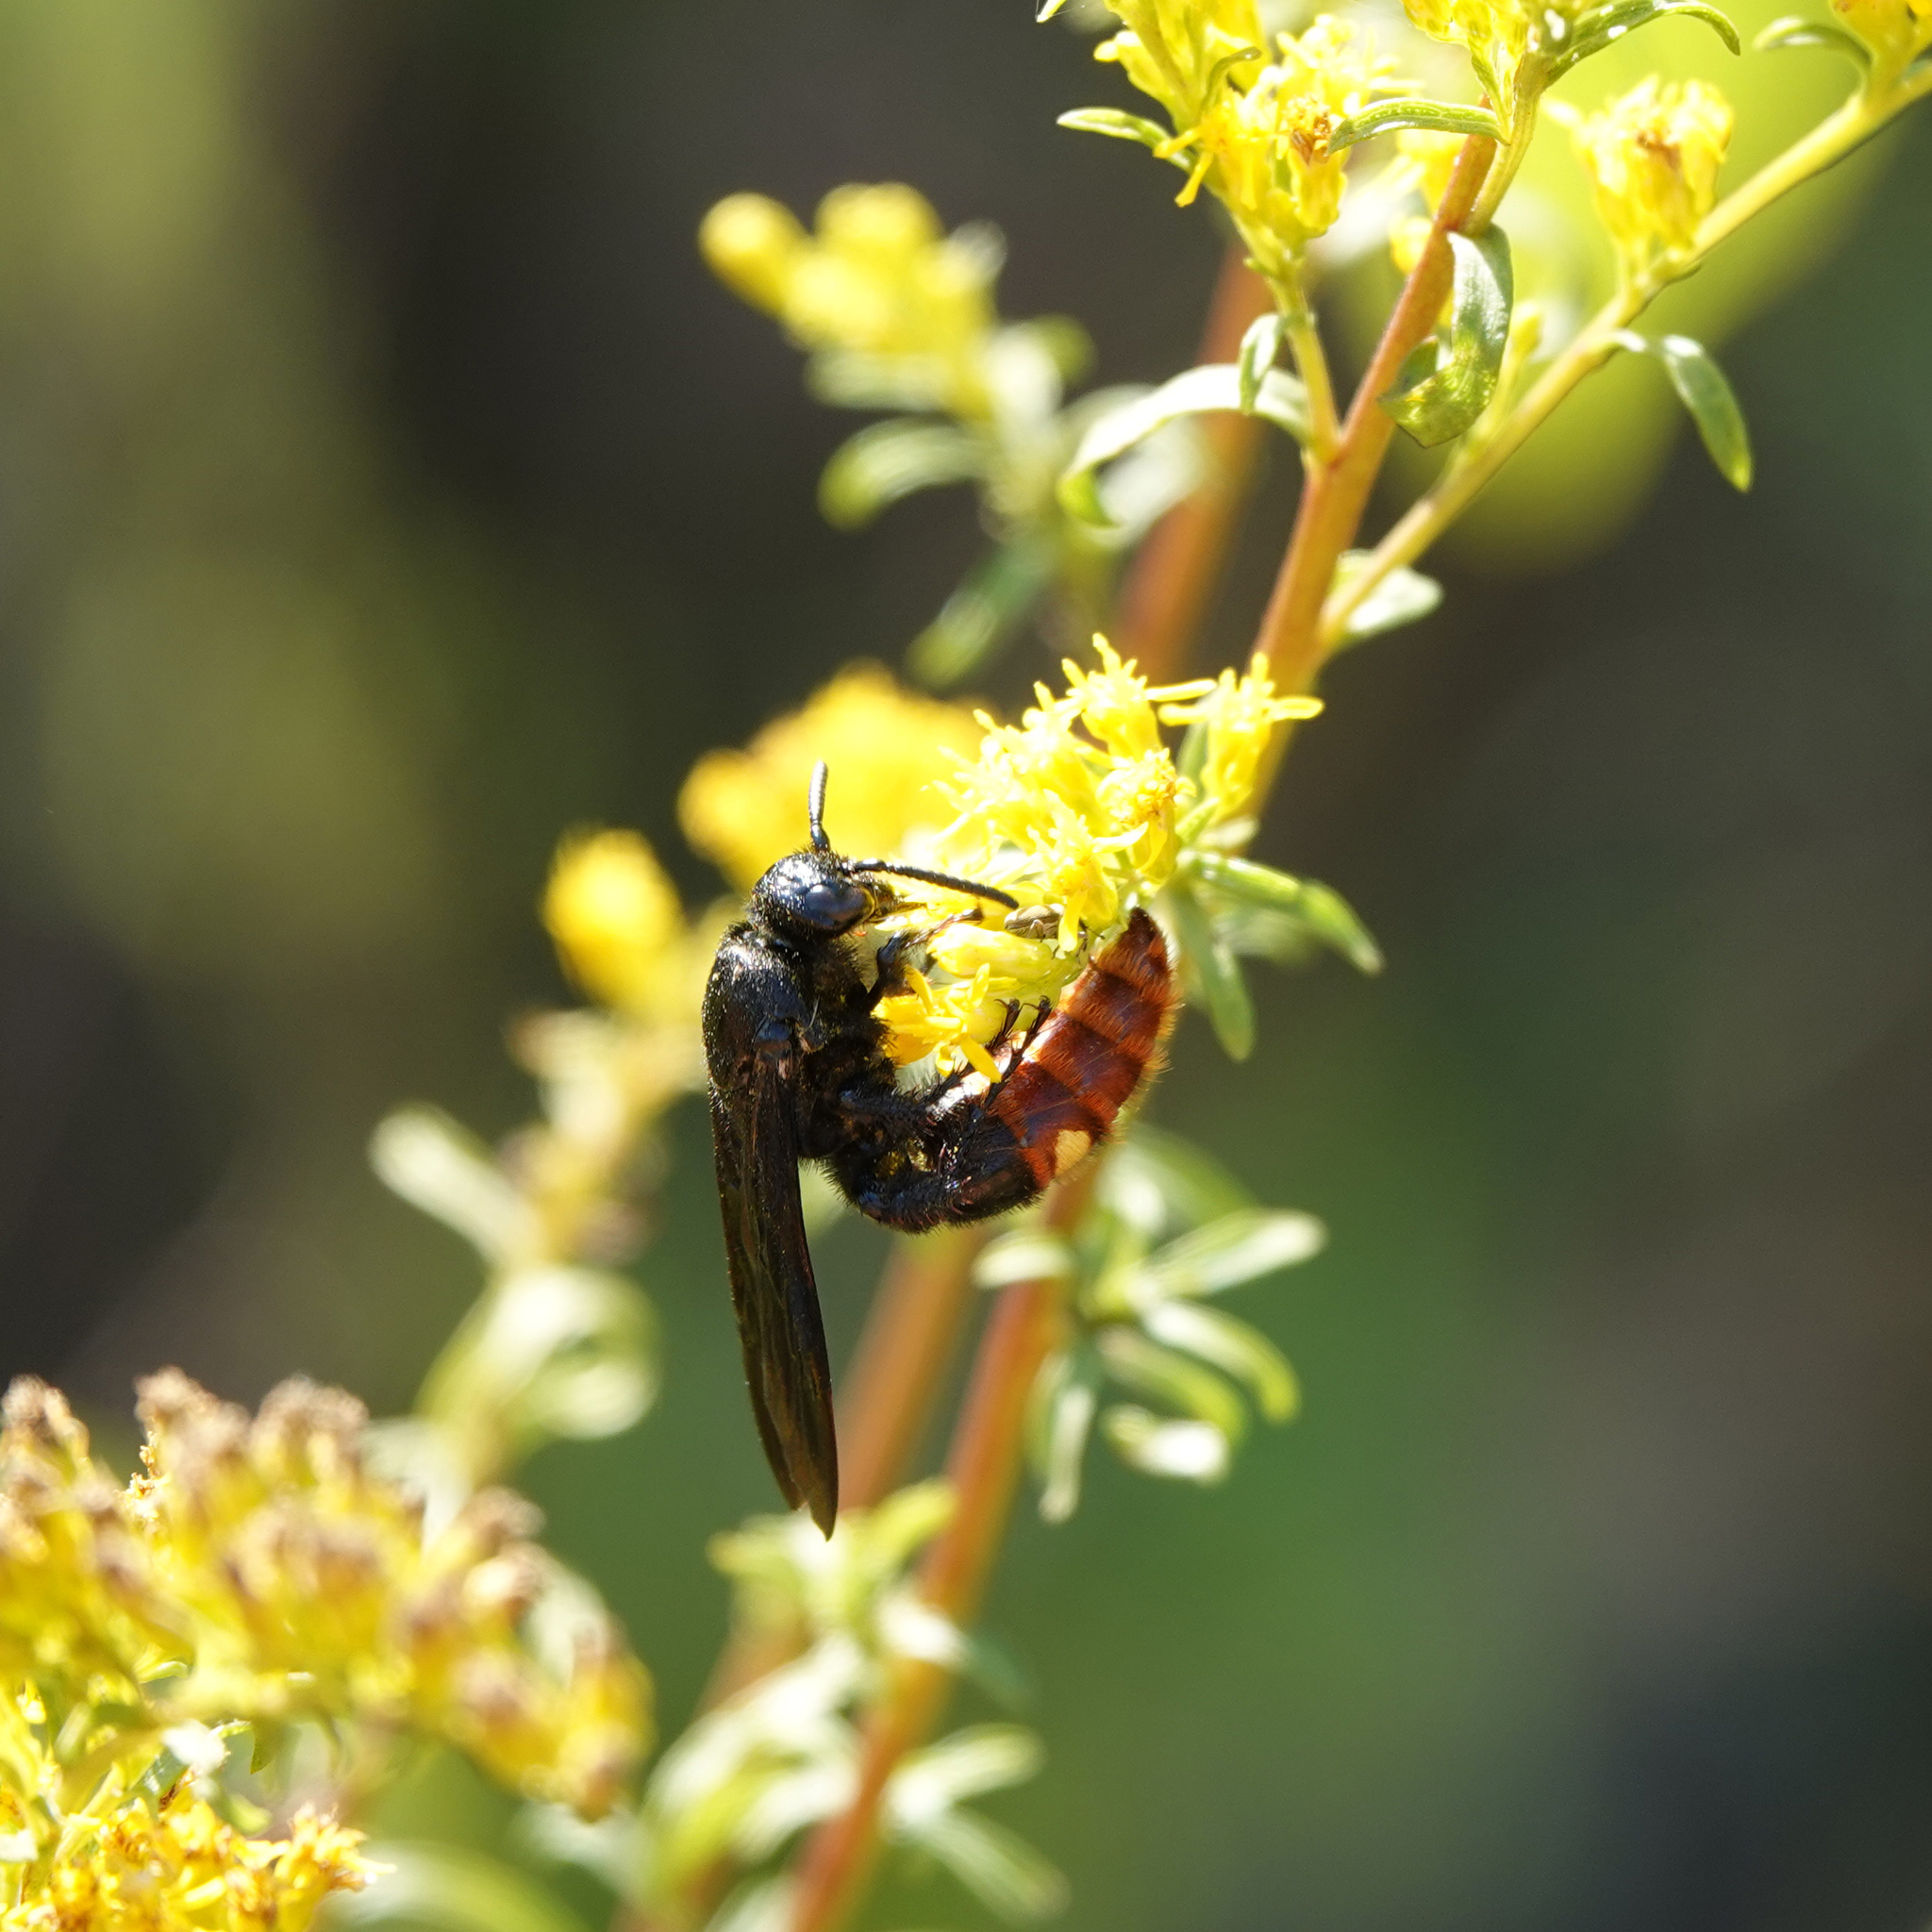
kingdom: Animalia
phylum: Arthropoda
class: Insecta
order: Hymenoptera
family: Scoliidae
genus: Scolia
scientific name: Scolia dubia
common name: Blue-winged scoliid wasp
